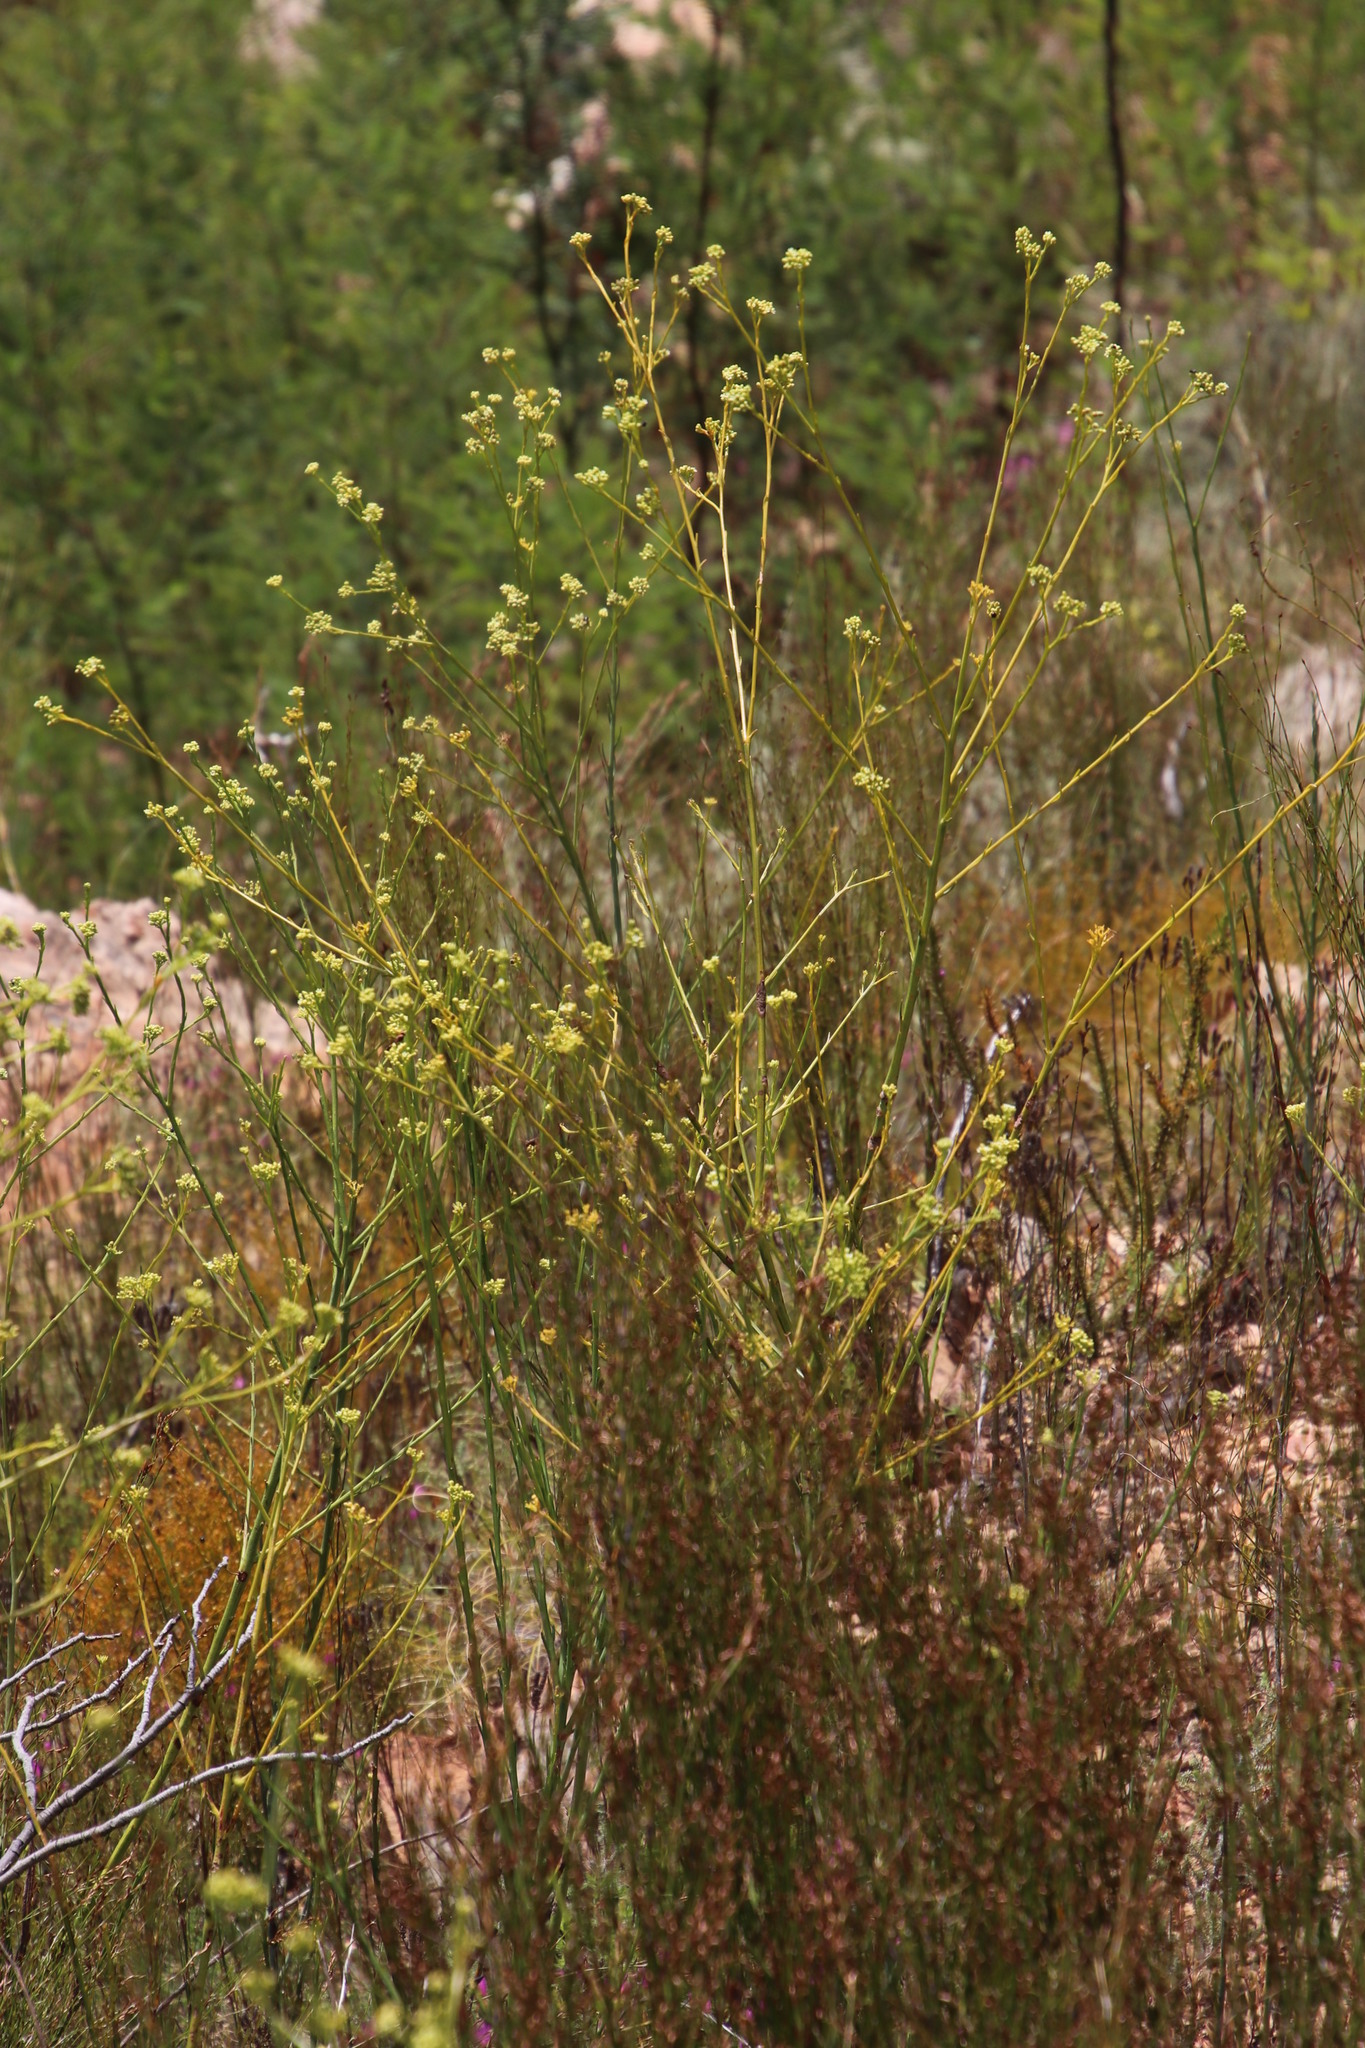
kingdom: Plantae
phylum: Tracheophyta
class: Magnoliopsida
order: Santalales
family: Thesiaceae
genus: Thesium
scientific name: Thesium strictum
